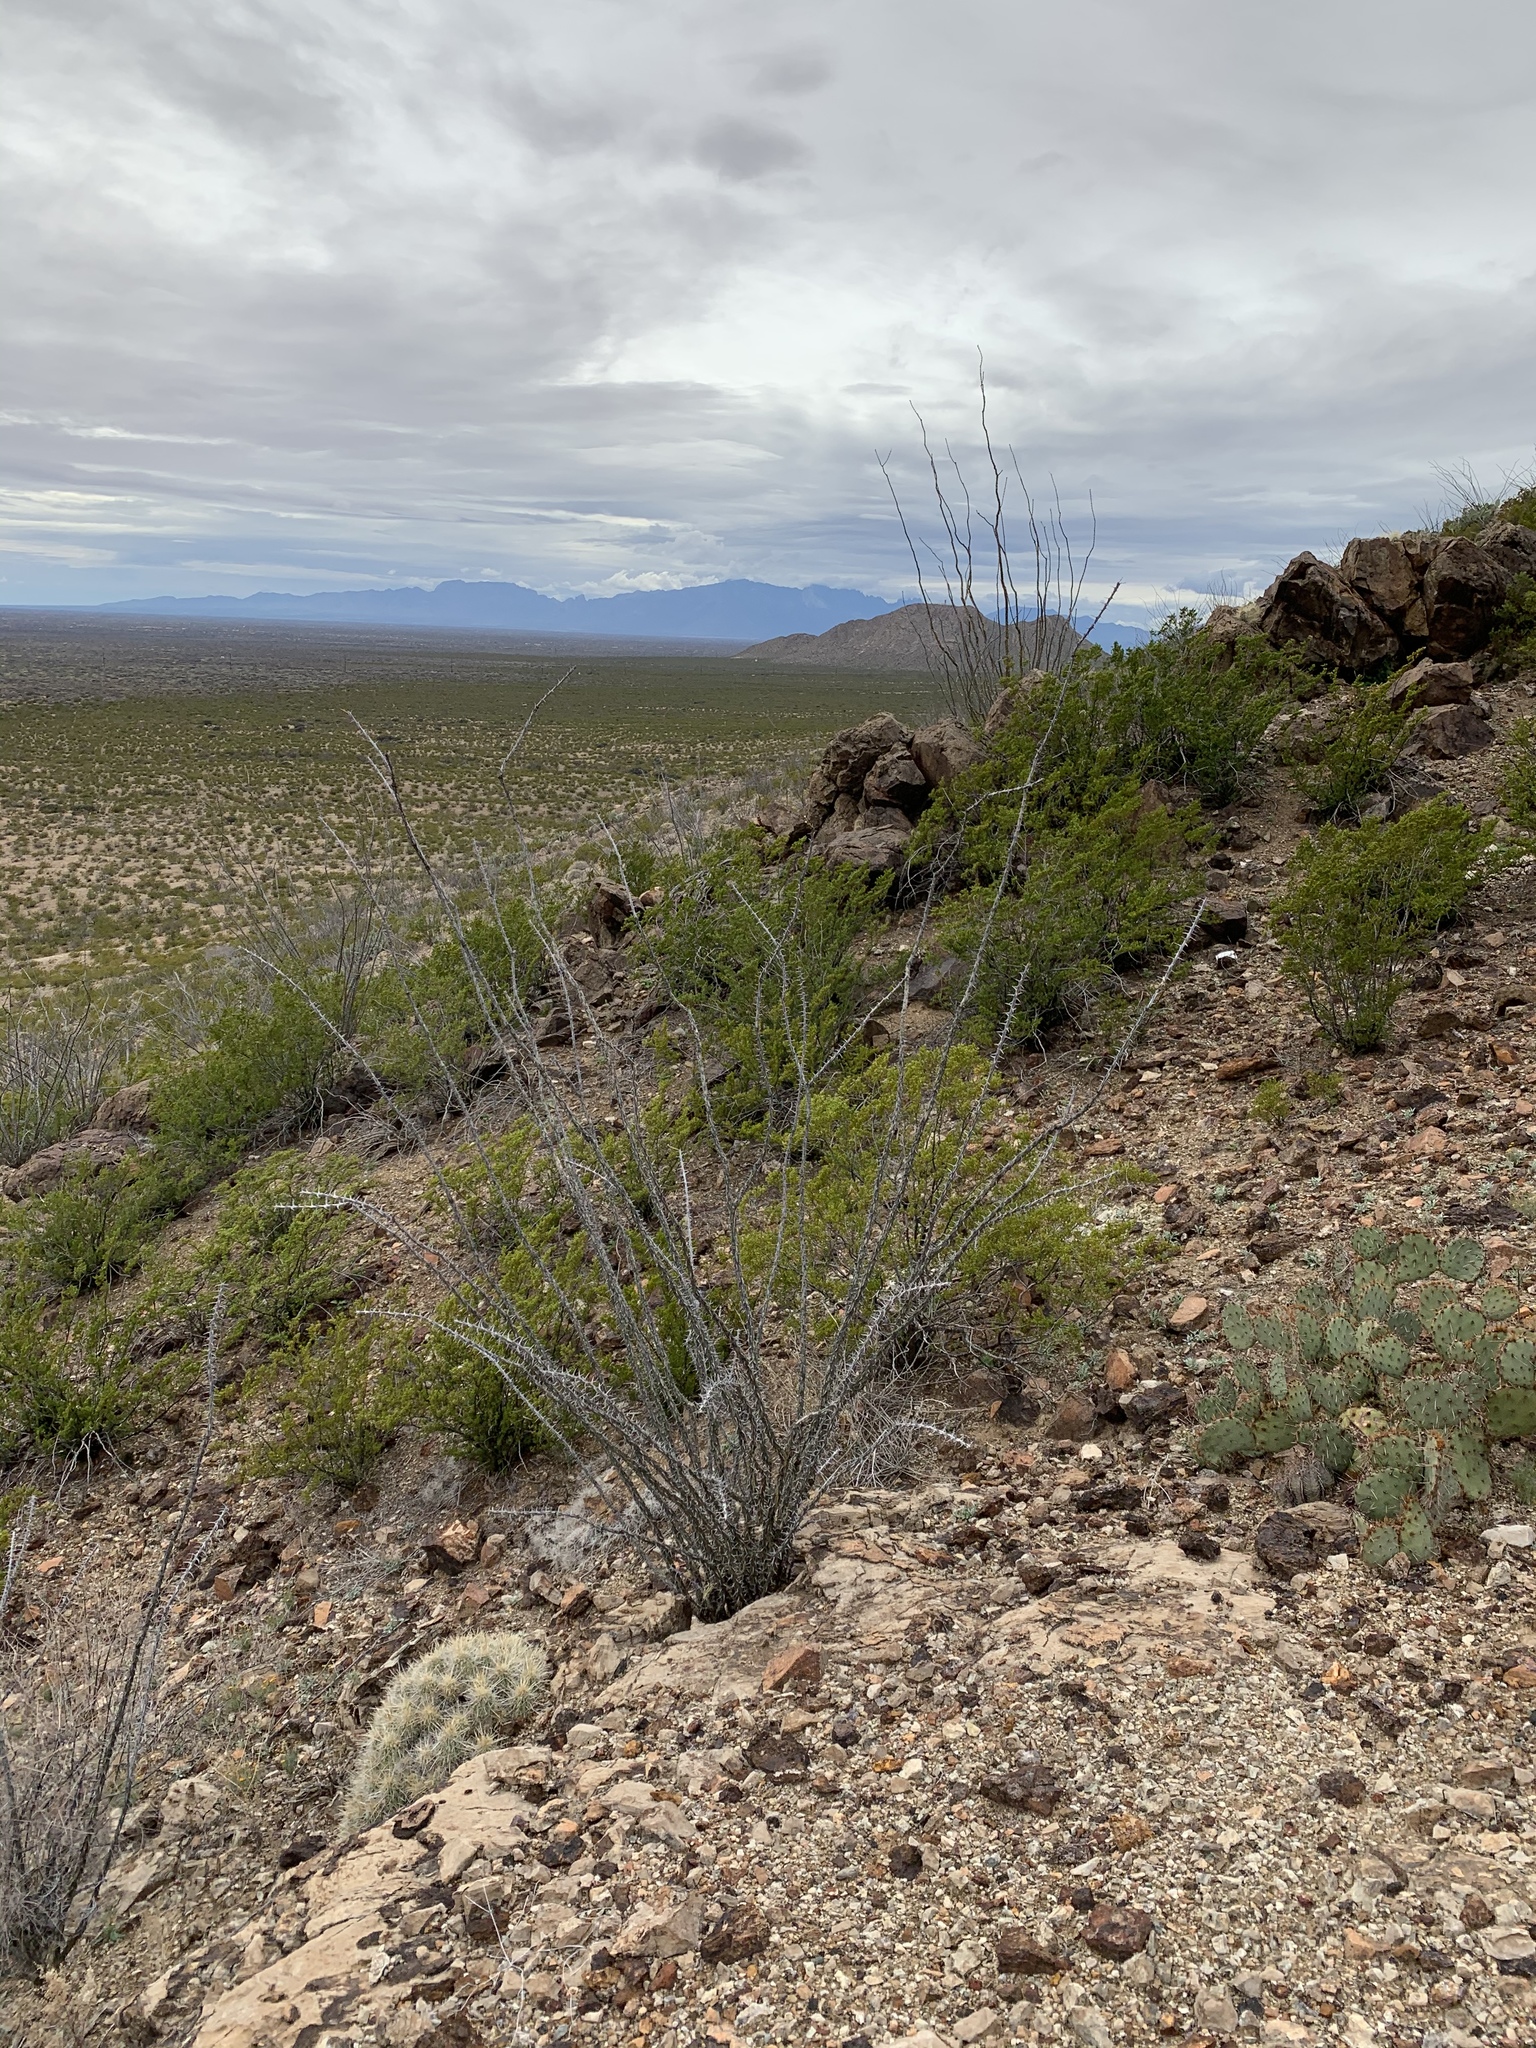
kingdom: Plantae
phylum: Tracheophyta
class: Magnoliopsida
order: Ericales
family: Fouquieriaceae
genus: Fouquieria
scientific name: Fouquieria splendens
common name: Vine-cactus
